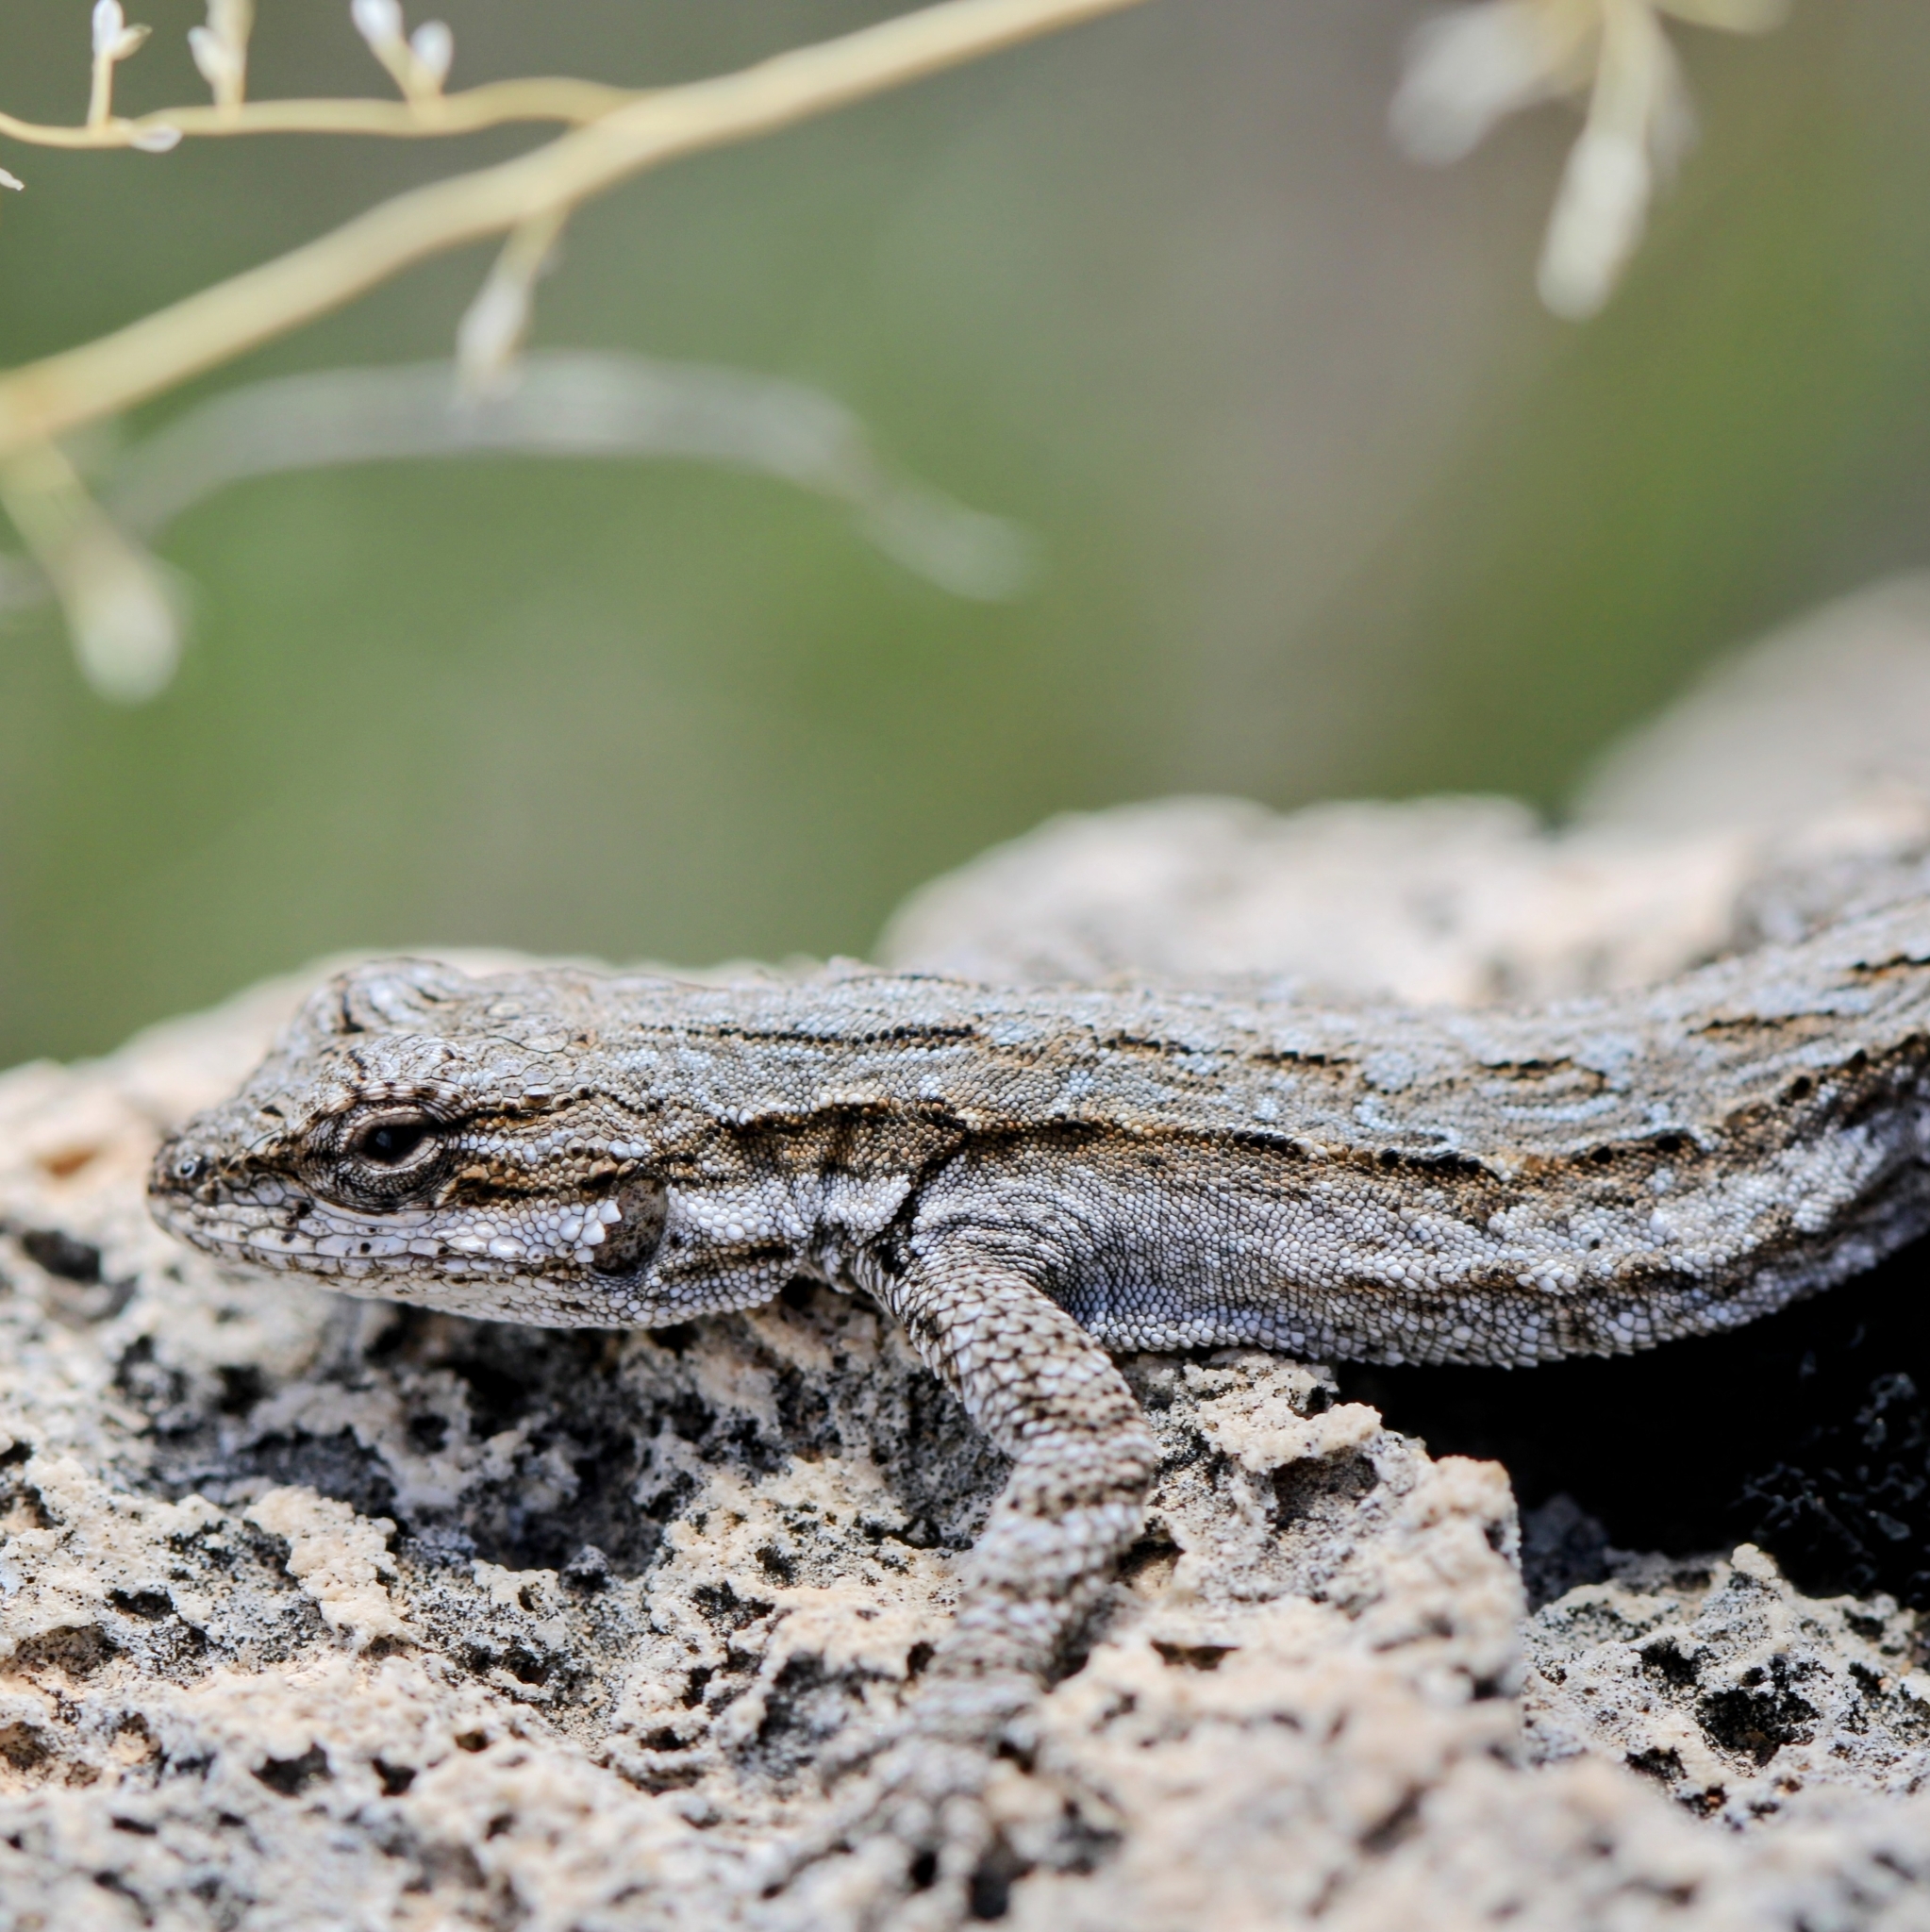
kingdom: Animalia
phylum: Chordata
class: Squamata
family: Phrynosomatidae
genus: Urosaurus
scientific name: Urosaurus ornatus
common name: Ornate tree lizard
